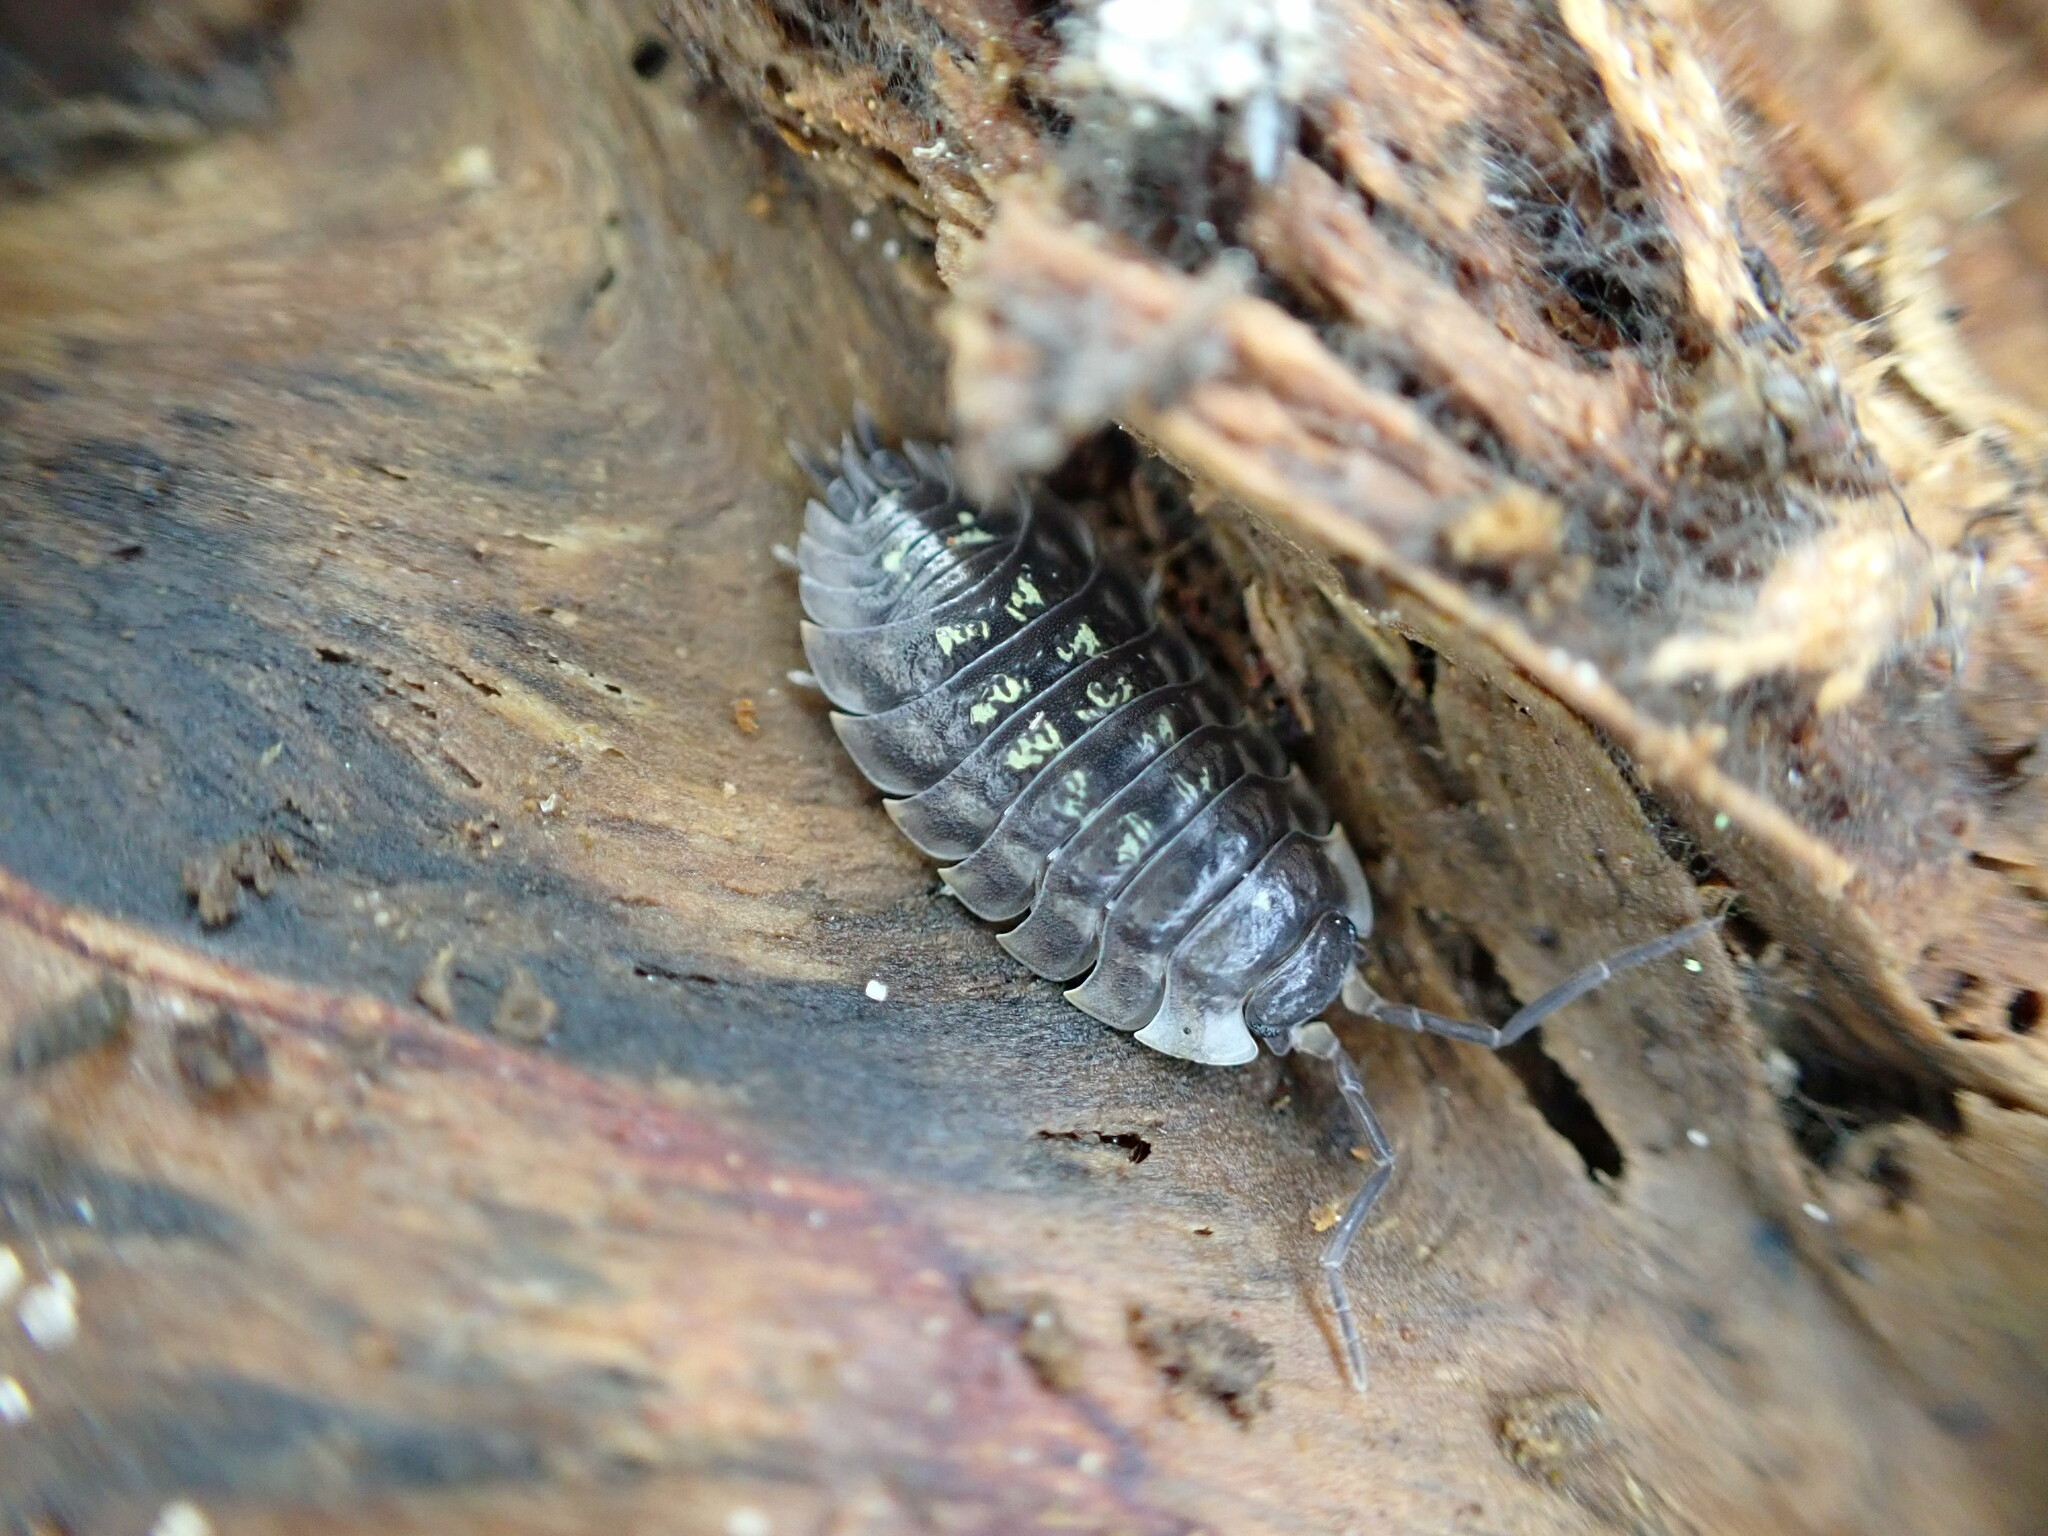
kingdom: Animalia
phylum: Arthropoda
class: Malacostraca
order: Isopoda
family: Oniscidae
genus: Oniscus
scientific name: Oniscus asellus
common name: Common shiny woodlouse
